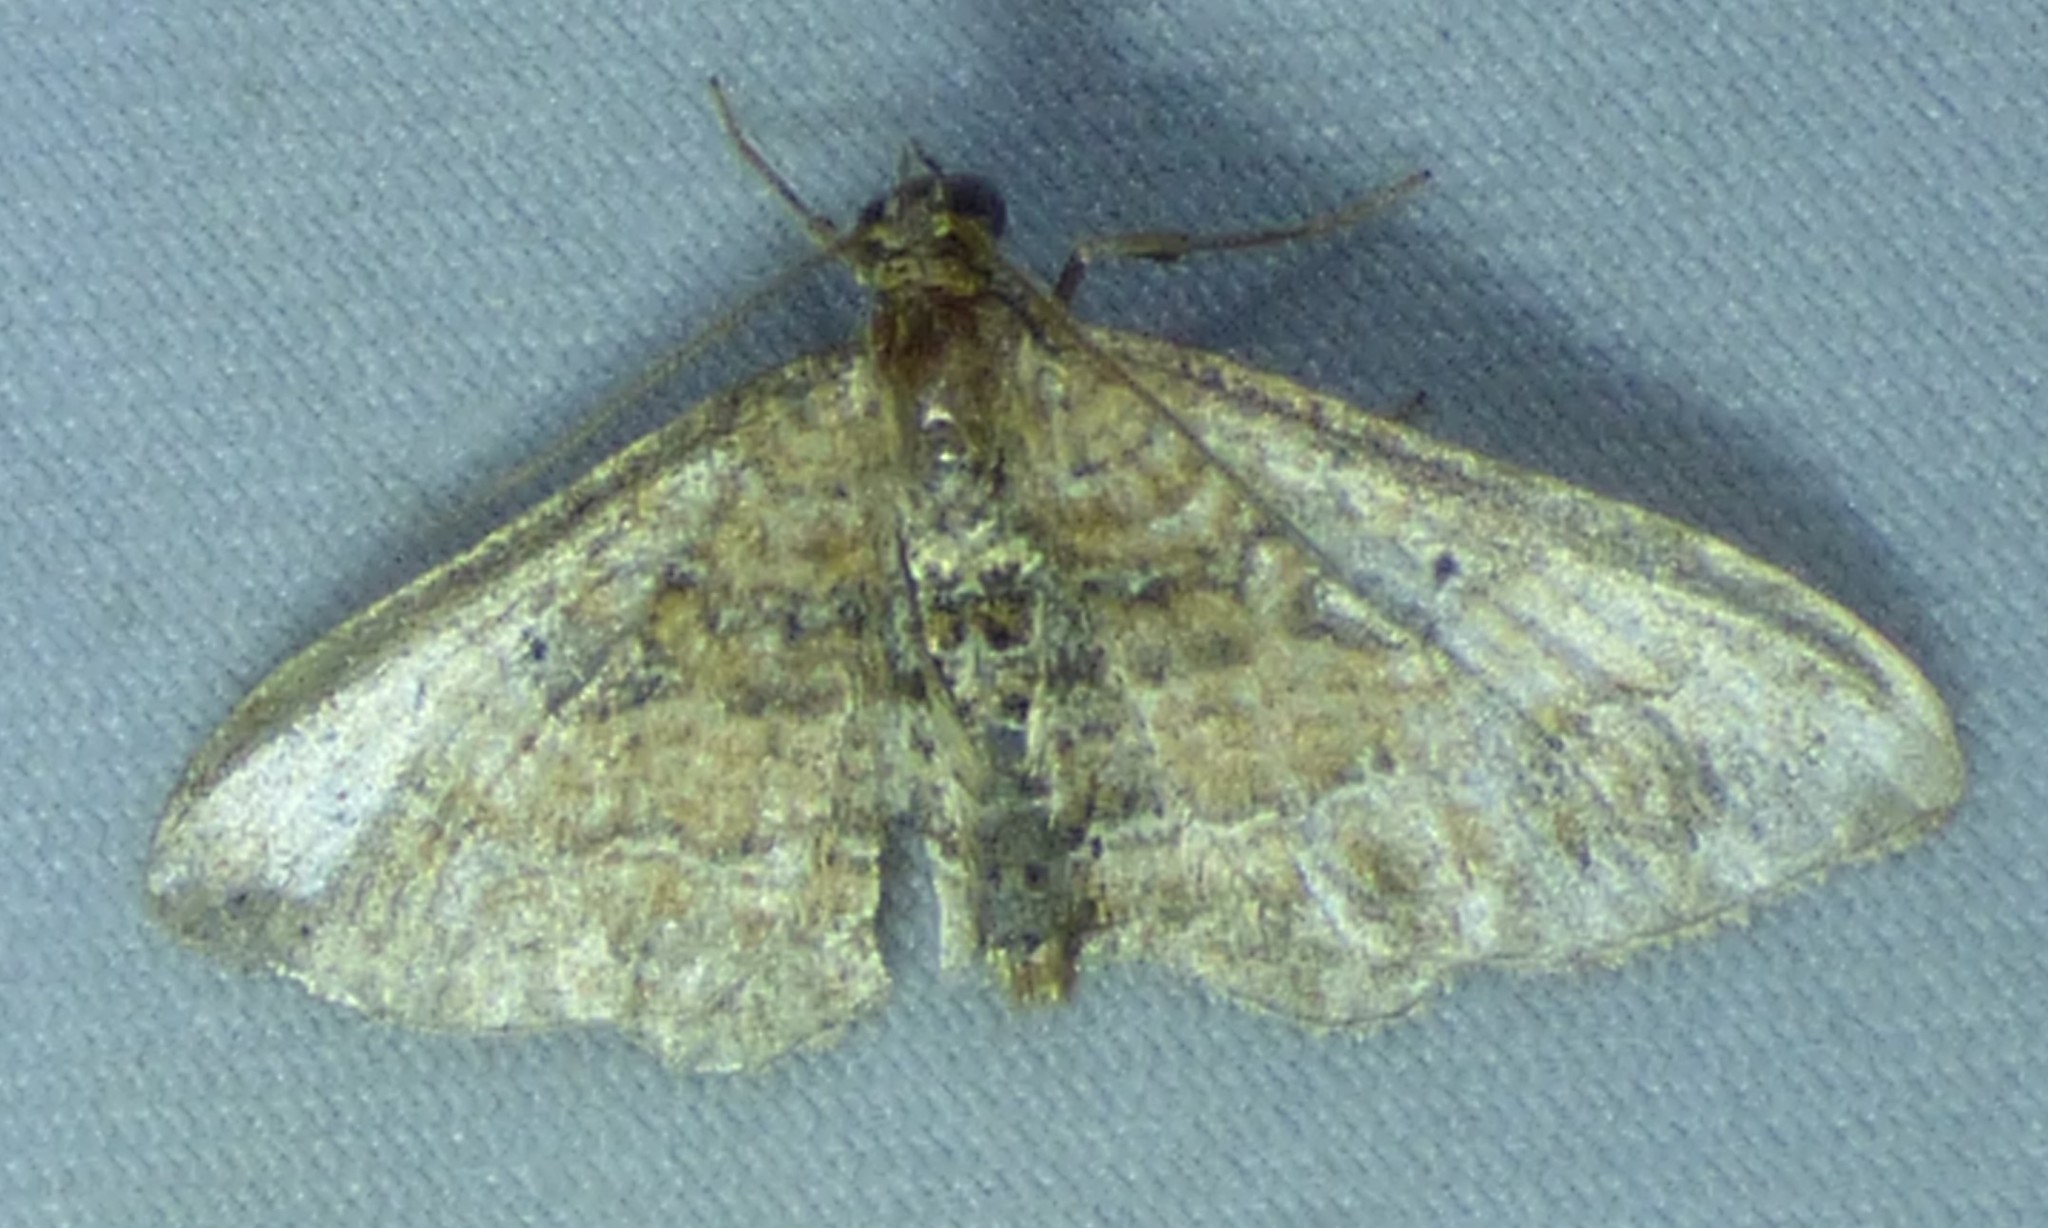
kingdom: Animalia
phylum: Arthropoda
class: Insecta
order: Lepidoptera
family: Geometridae
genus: Orthonama
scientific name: Orthonama obstipata
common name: The gem
